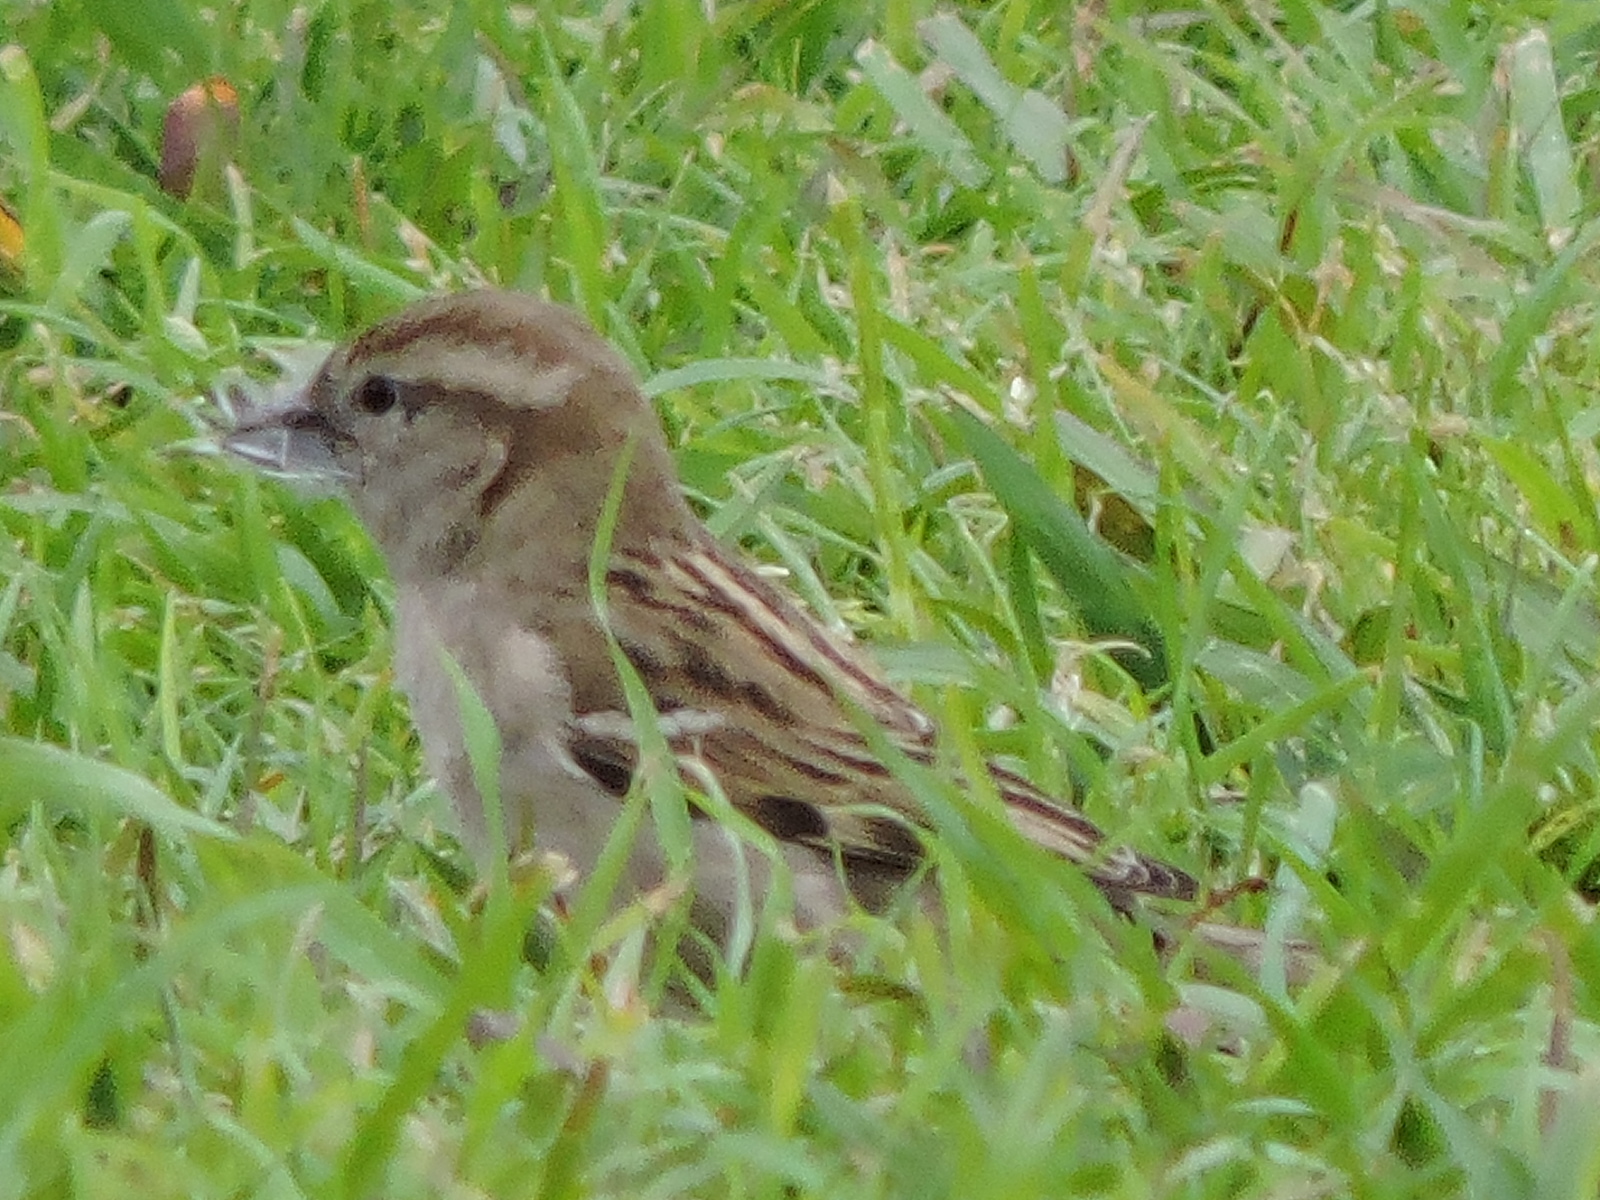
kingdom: Animalia
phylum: Chordata
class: Aves
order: Passeriformes
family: Passeridae
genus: Passer
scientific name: Passer domesticus
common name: House sparrow
